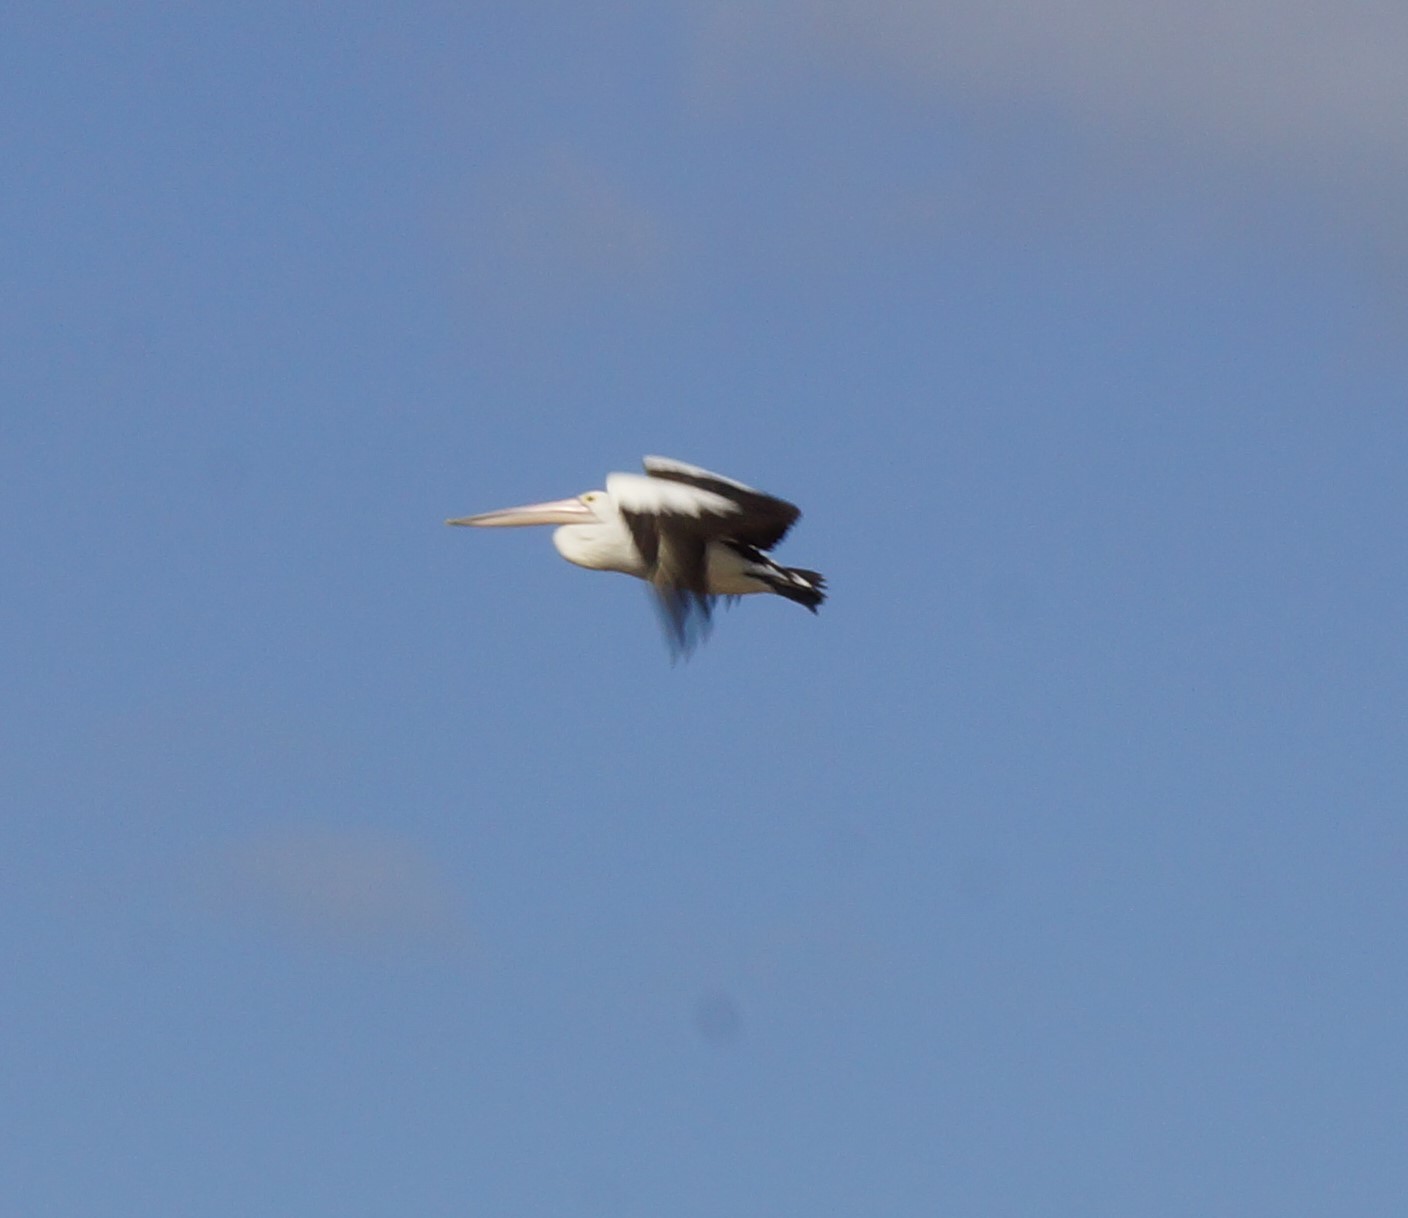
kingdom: Animalia
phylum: Chordata
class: Aves
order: Pelecaniformes
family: Pelecanidae
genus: Pelecanus
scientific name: Pelecanus conspicillatus
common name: Australian pelican
